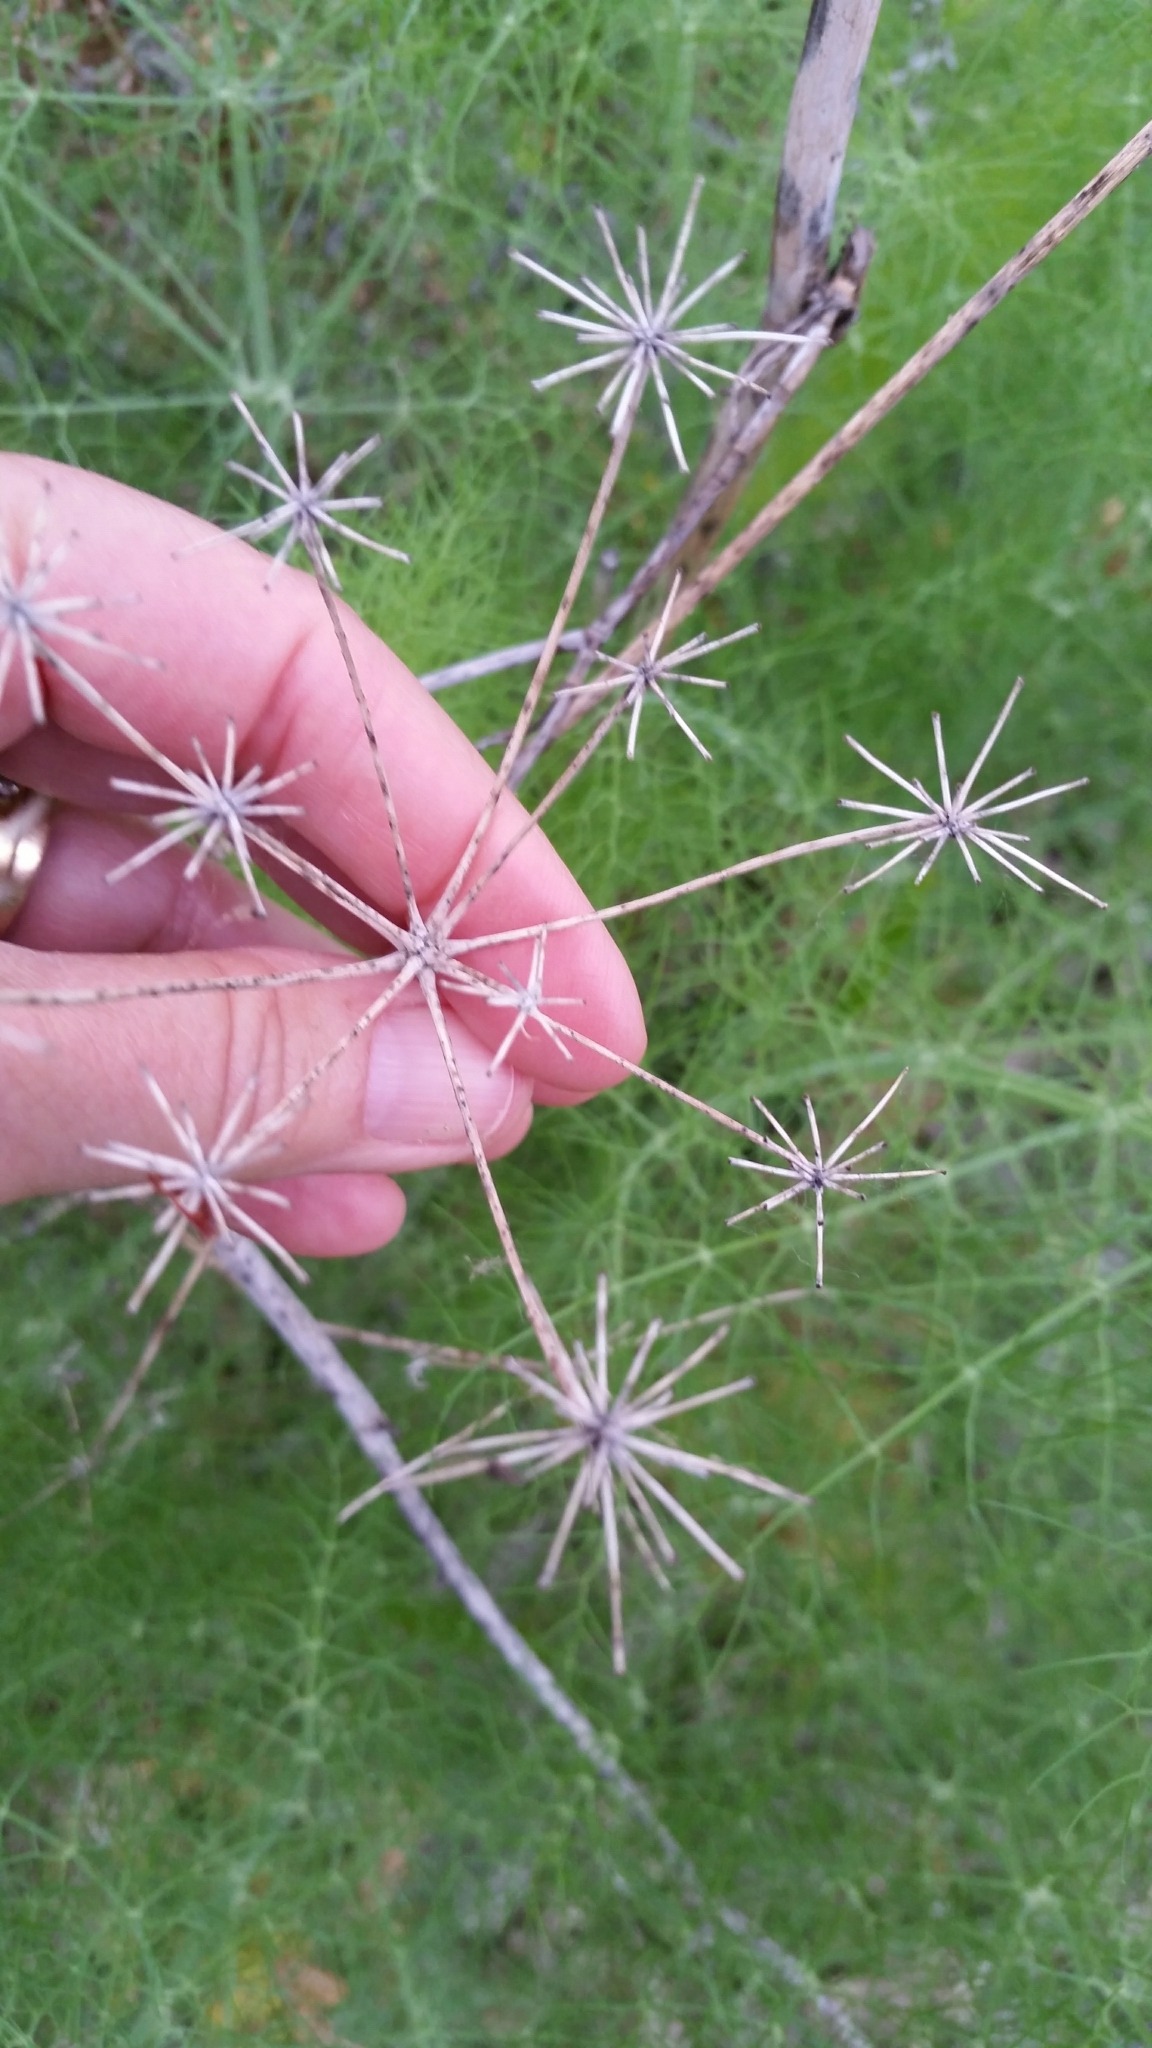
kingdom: Plantae
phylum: Tracheophyta
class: Magnoliopsida
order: Apiales
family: Apiaceae
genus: Foeniculum
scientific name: Foeniculum vulgare
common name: Fennel
